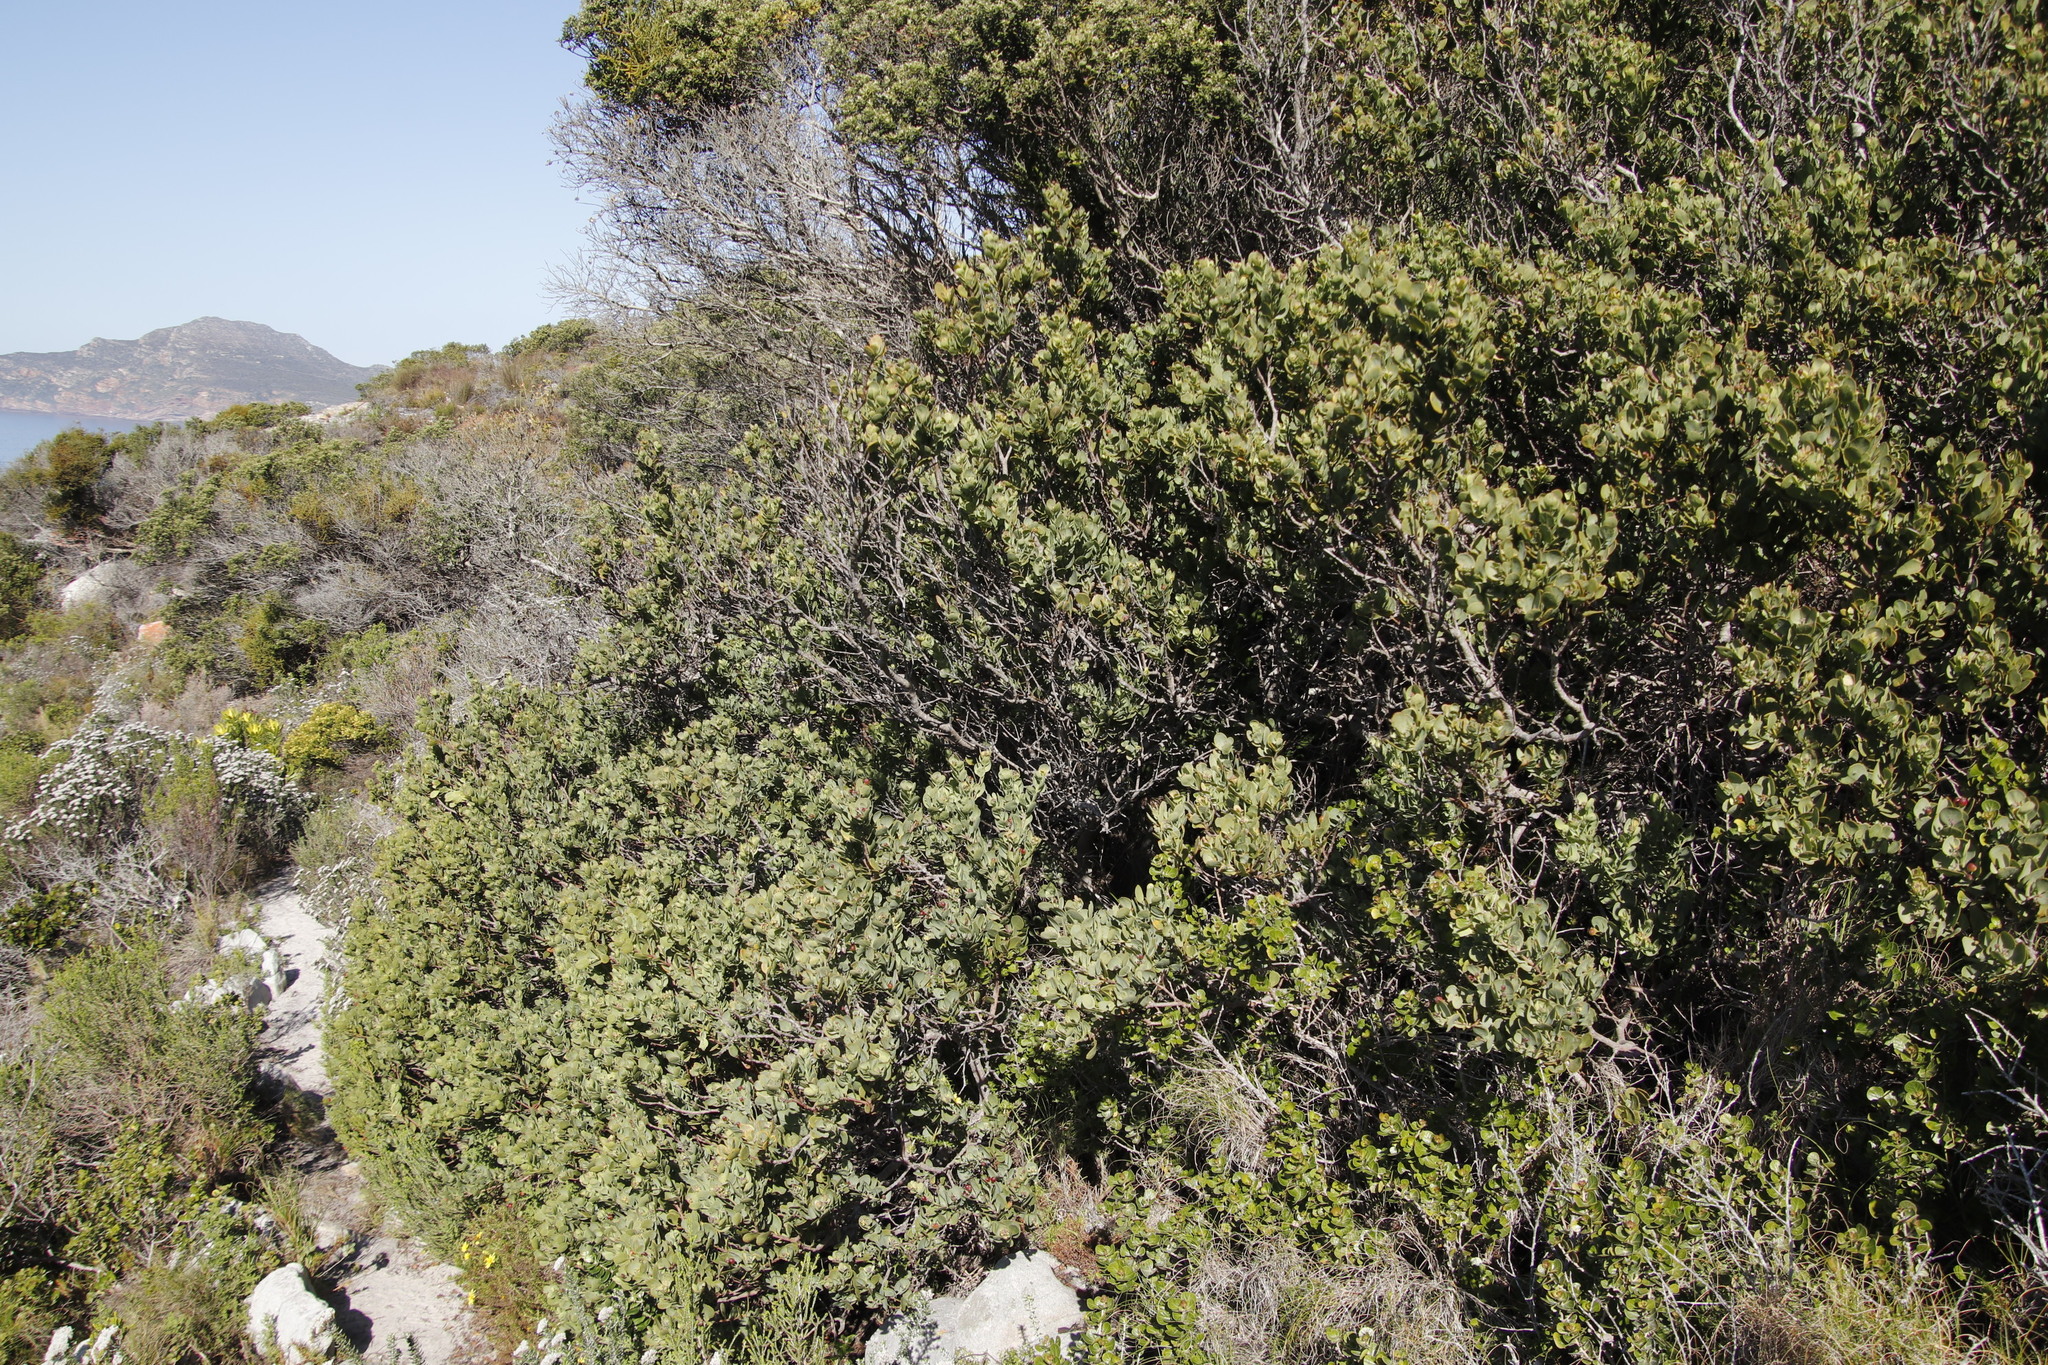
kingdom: Plantae
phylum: Tracheophyta
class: Magnoliopsida
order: Santalales
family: Santalaceae
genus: Osyris
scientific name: Osyris compressa
